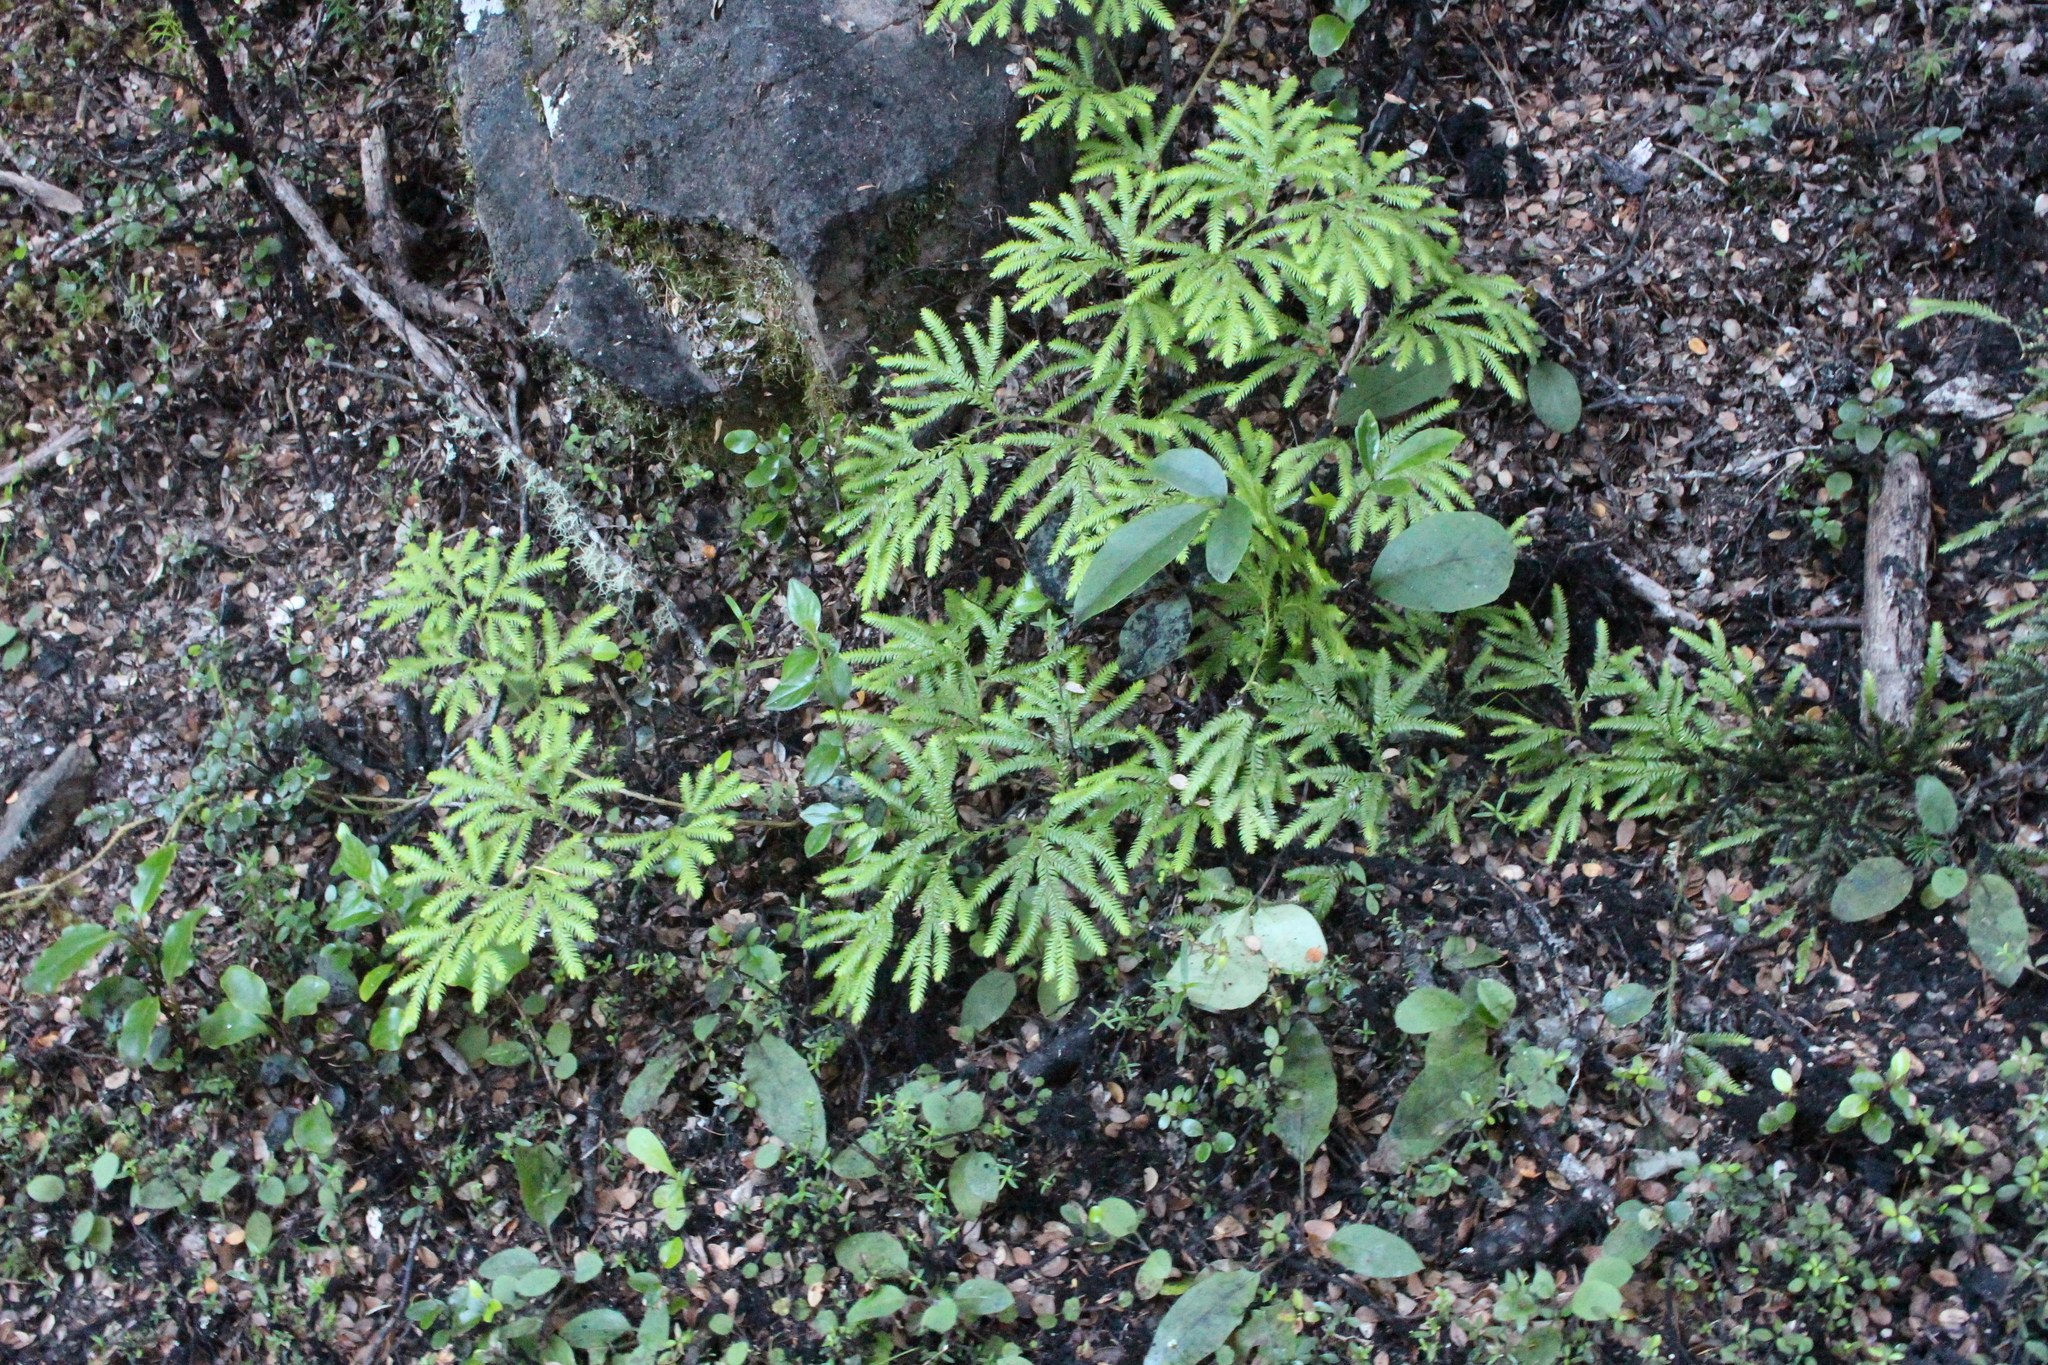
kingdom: Plantae
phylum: Tracheophyta
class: Lycopodiopsida
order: Lycopodiales
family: Lycopodiaceae
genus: Lycopodium
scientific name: Lycopodium volubile
